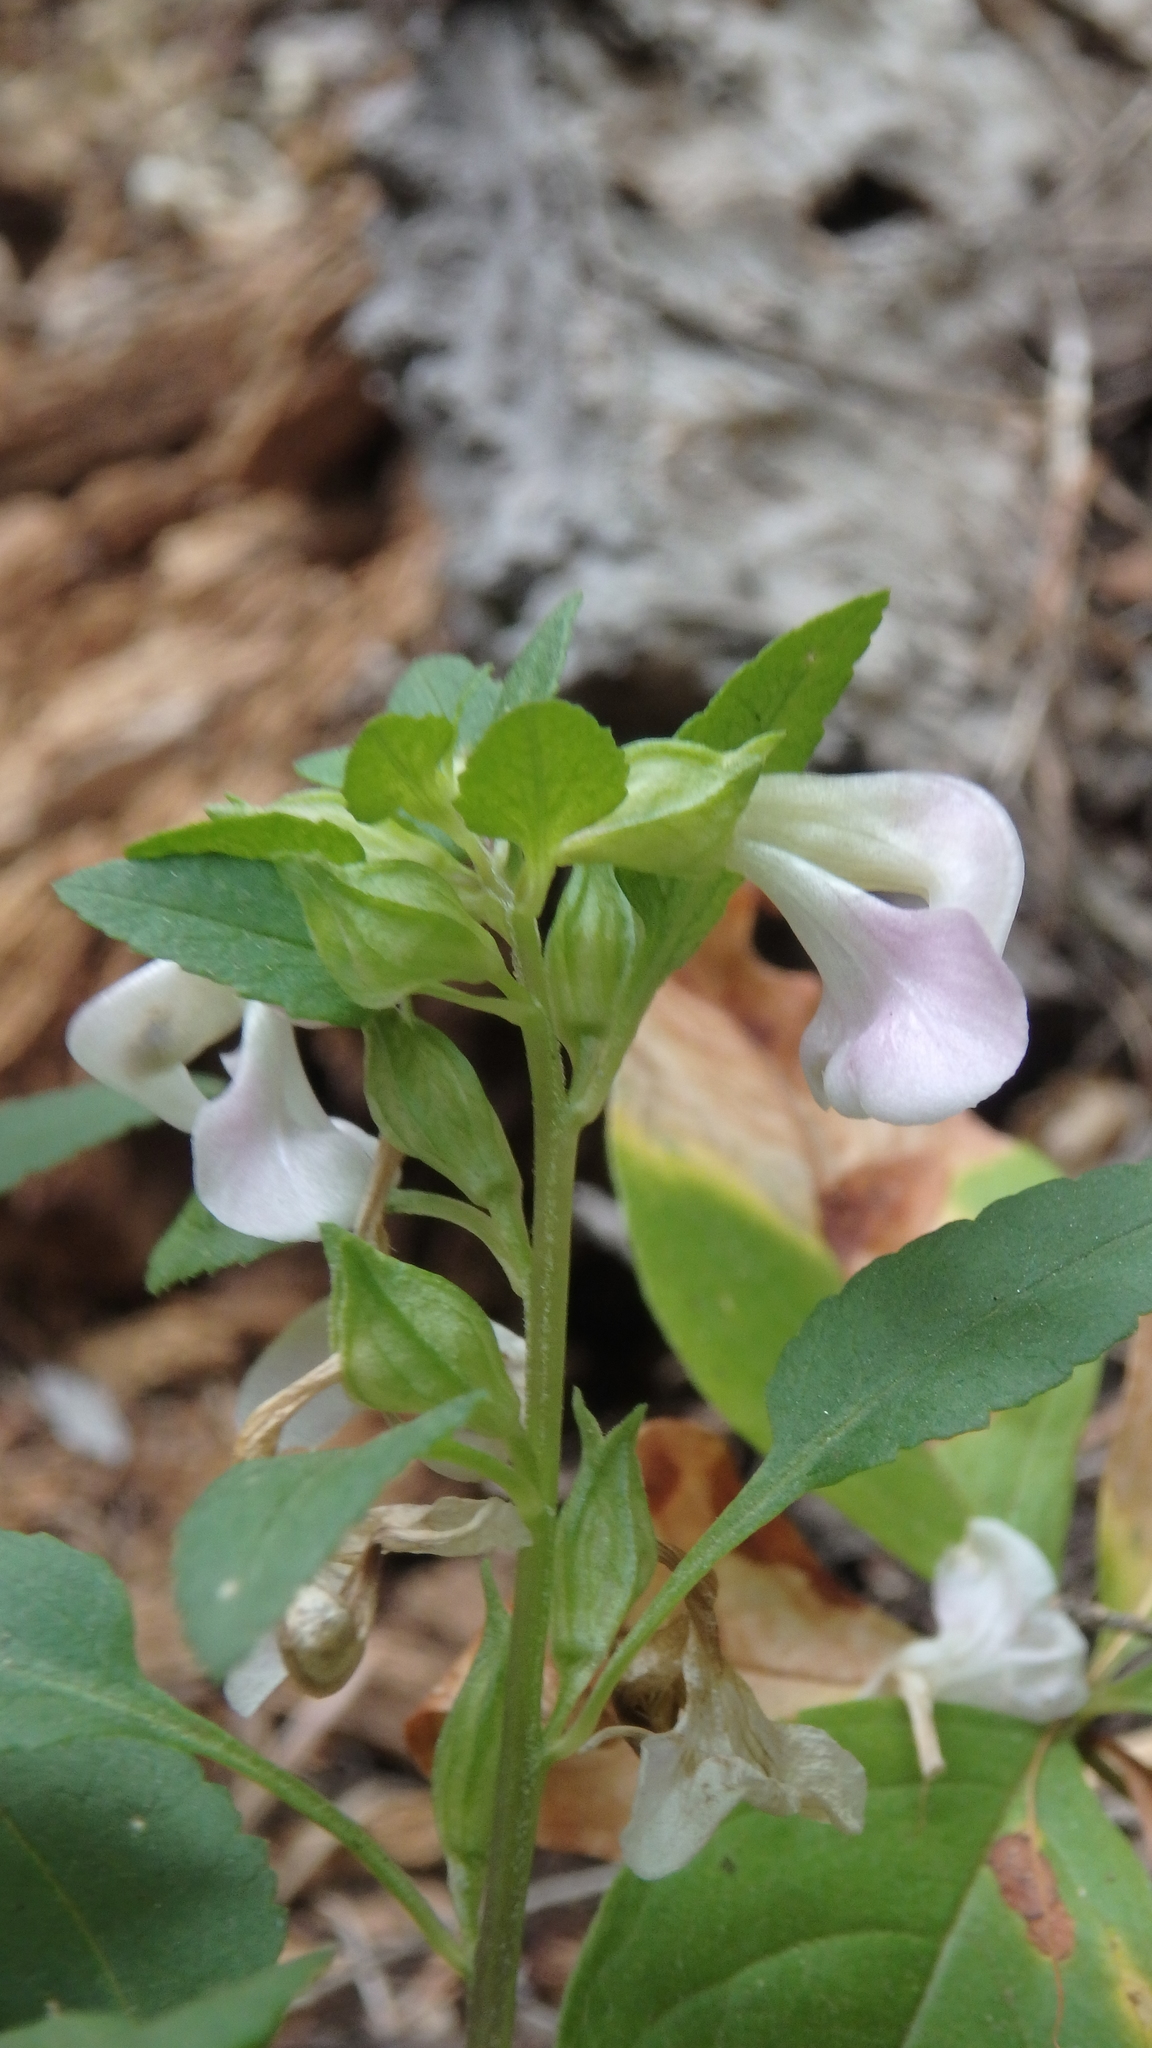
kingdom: Plantae
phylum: Tracheophyta
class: Magnoliopsida
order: Lamiales
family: Orobanchaceae
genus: Pedicularis
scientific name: Pedicularis racemosa
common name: Leafy lousewort
